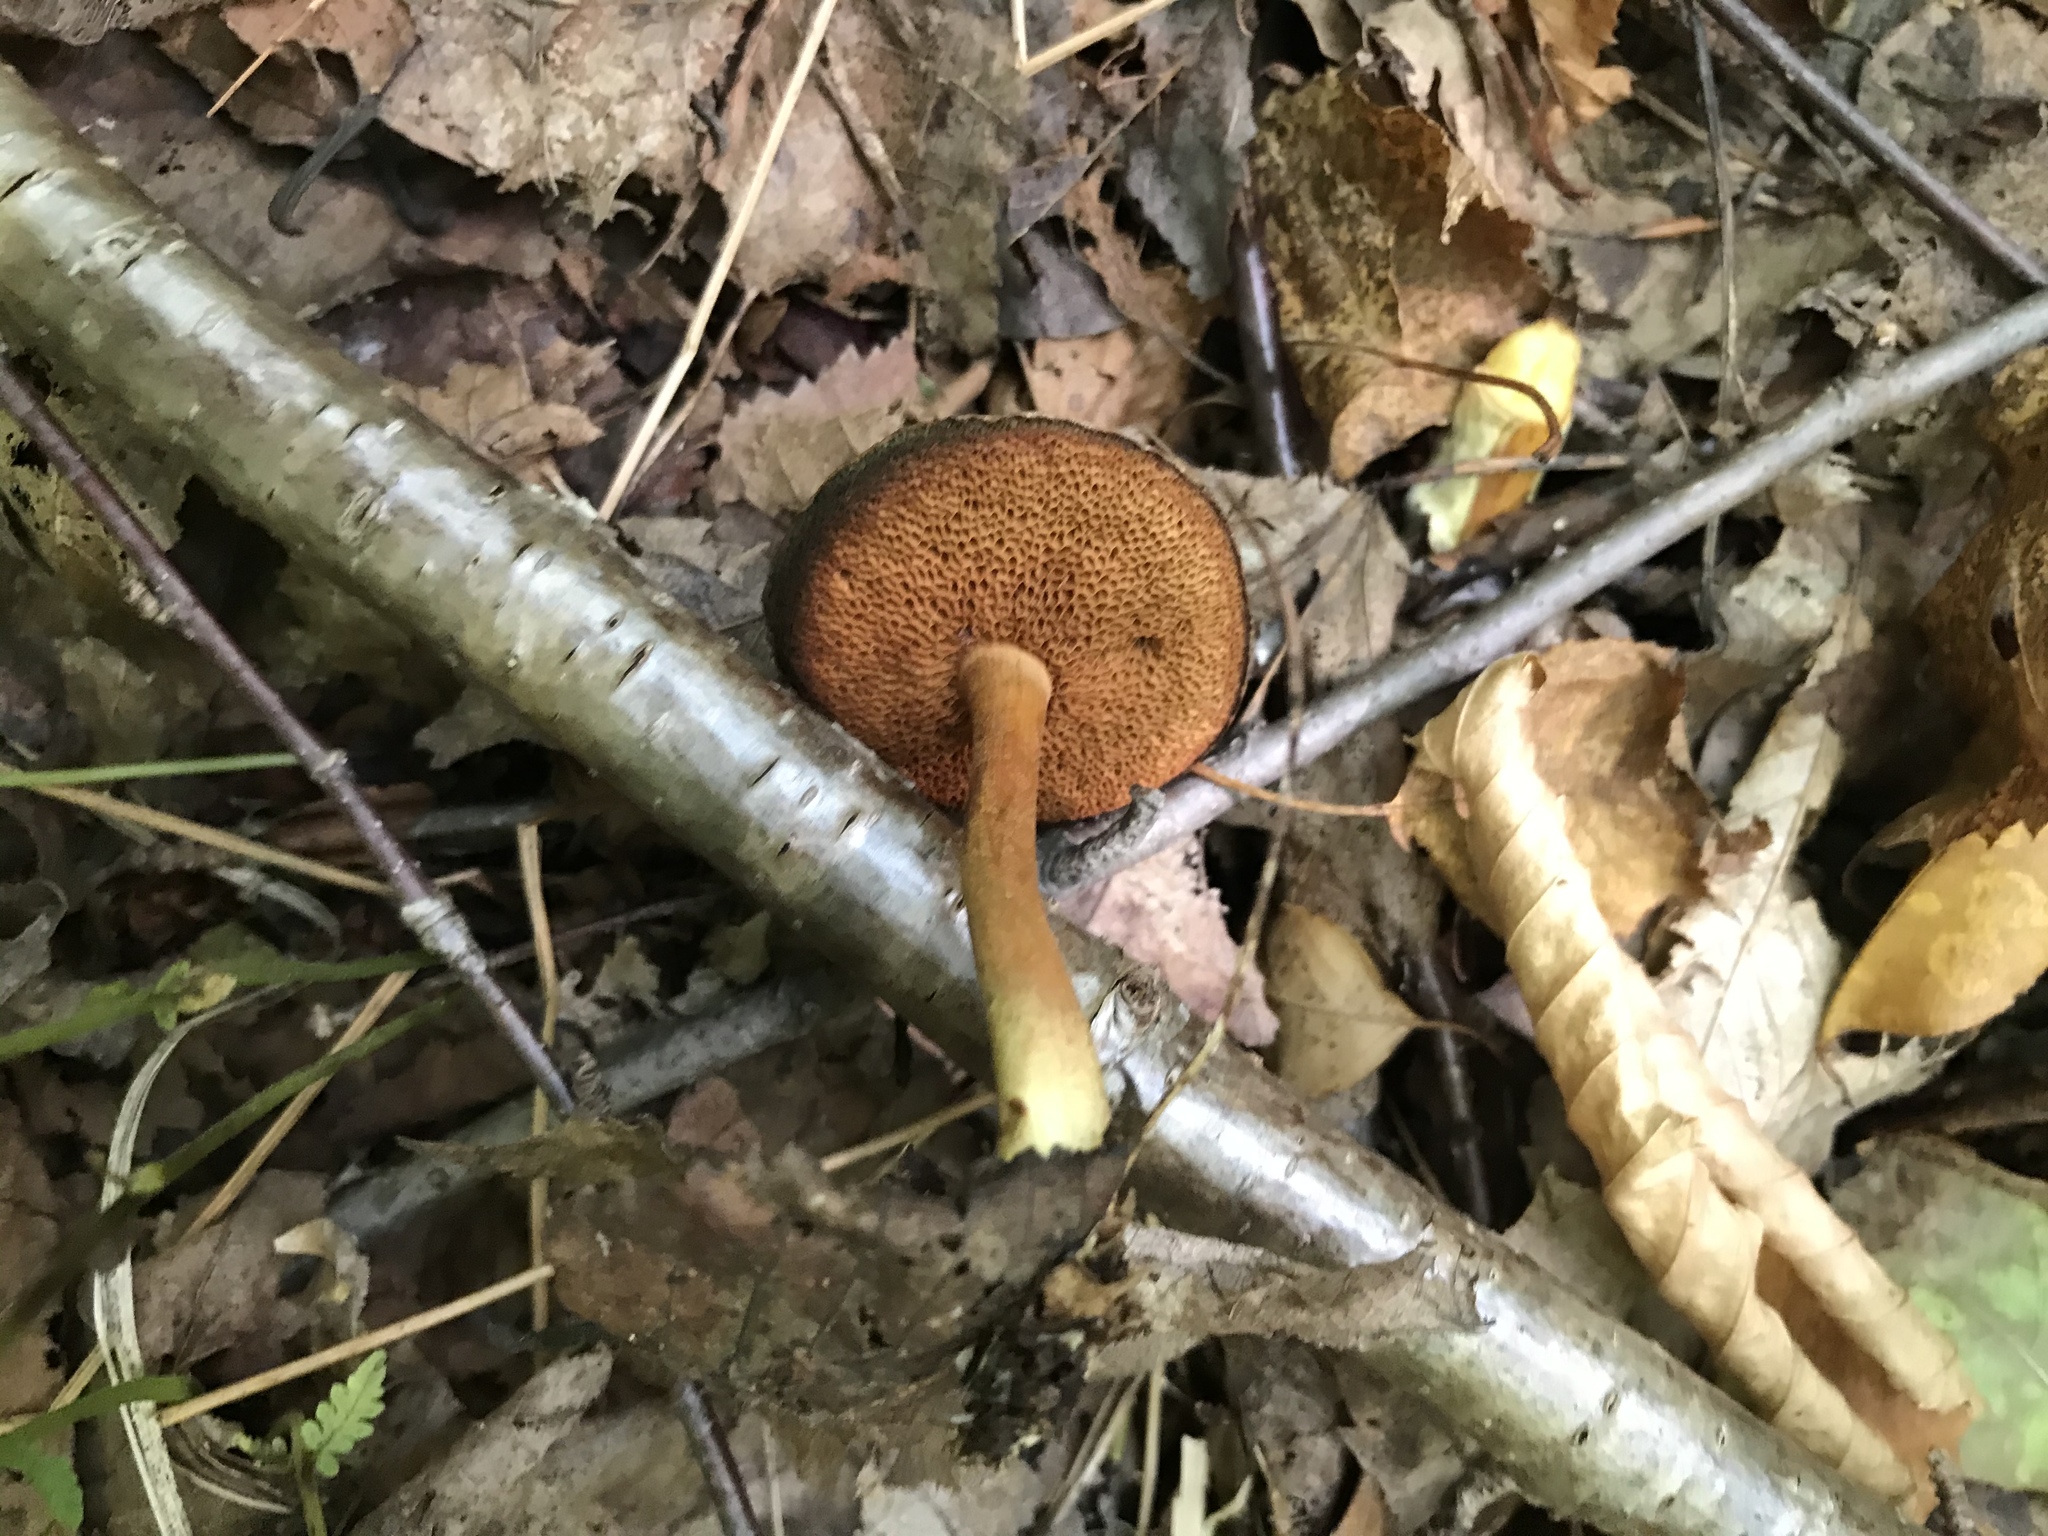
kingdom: Fungi
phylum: Basidiomycota
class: Agaricomycetes
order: Boletales
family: Boletaceae
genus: Chalciporus
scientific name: Chalciporus piperatus
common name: Peppery bolete
